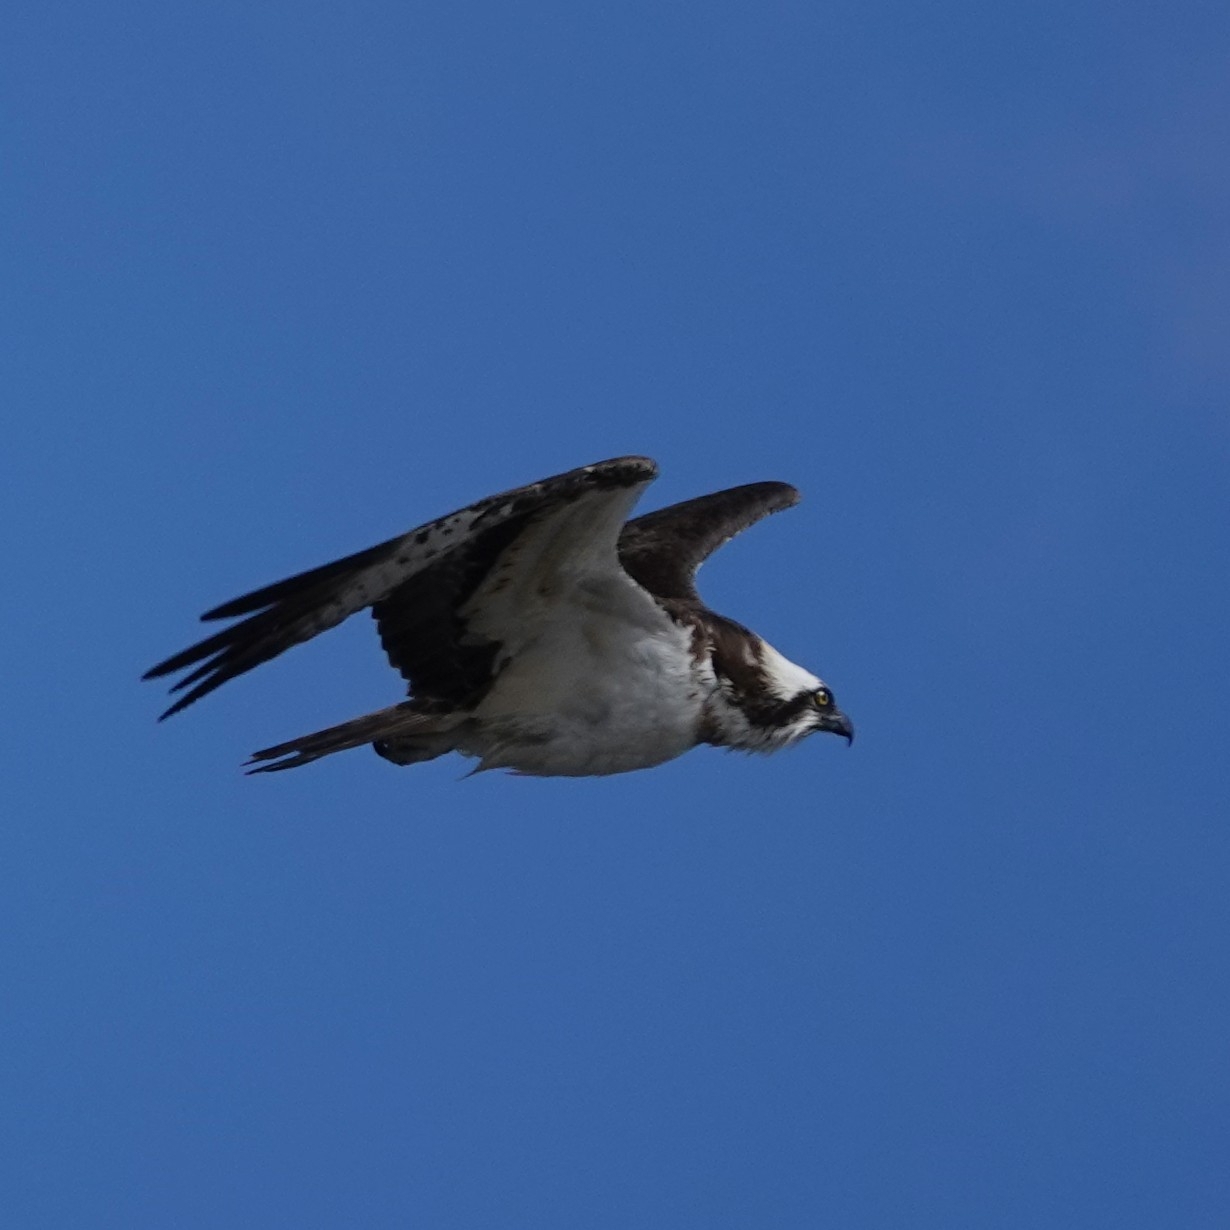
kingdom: Animalia
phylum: Chordata
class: Aves
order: Accipitriformes
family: Pandionidae
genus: Pandion
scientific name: Pandion haliaetus
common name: Osprey
